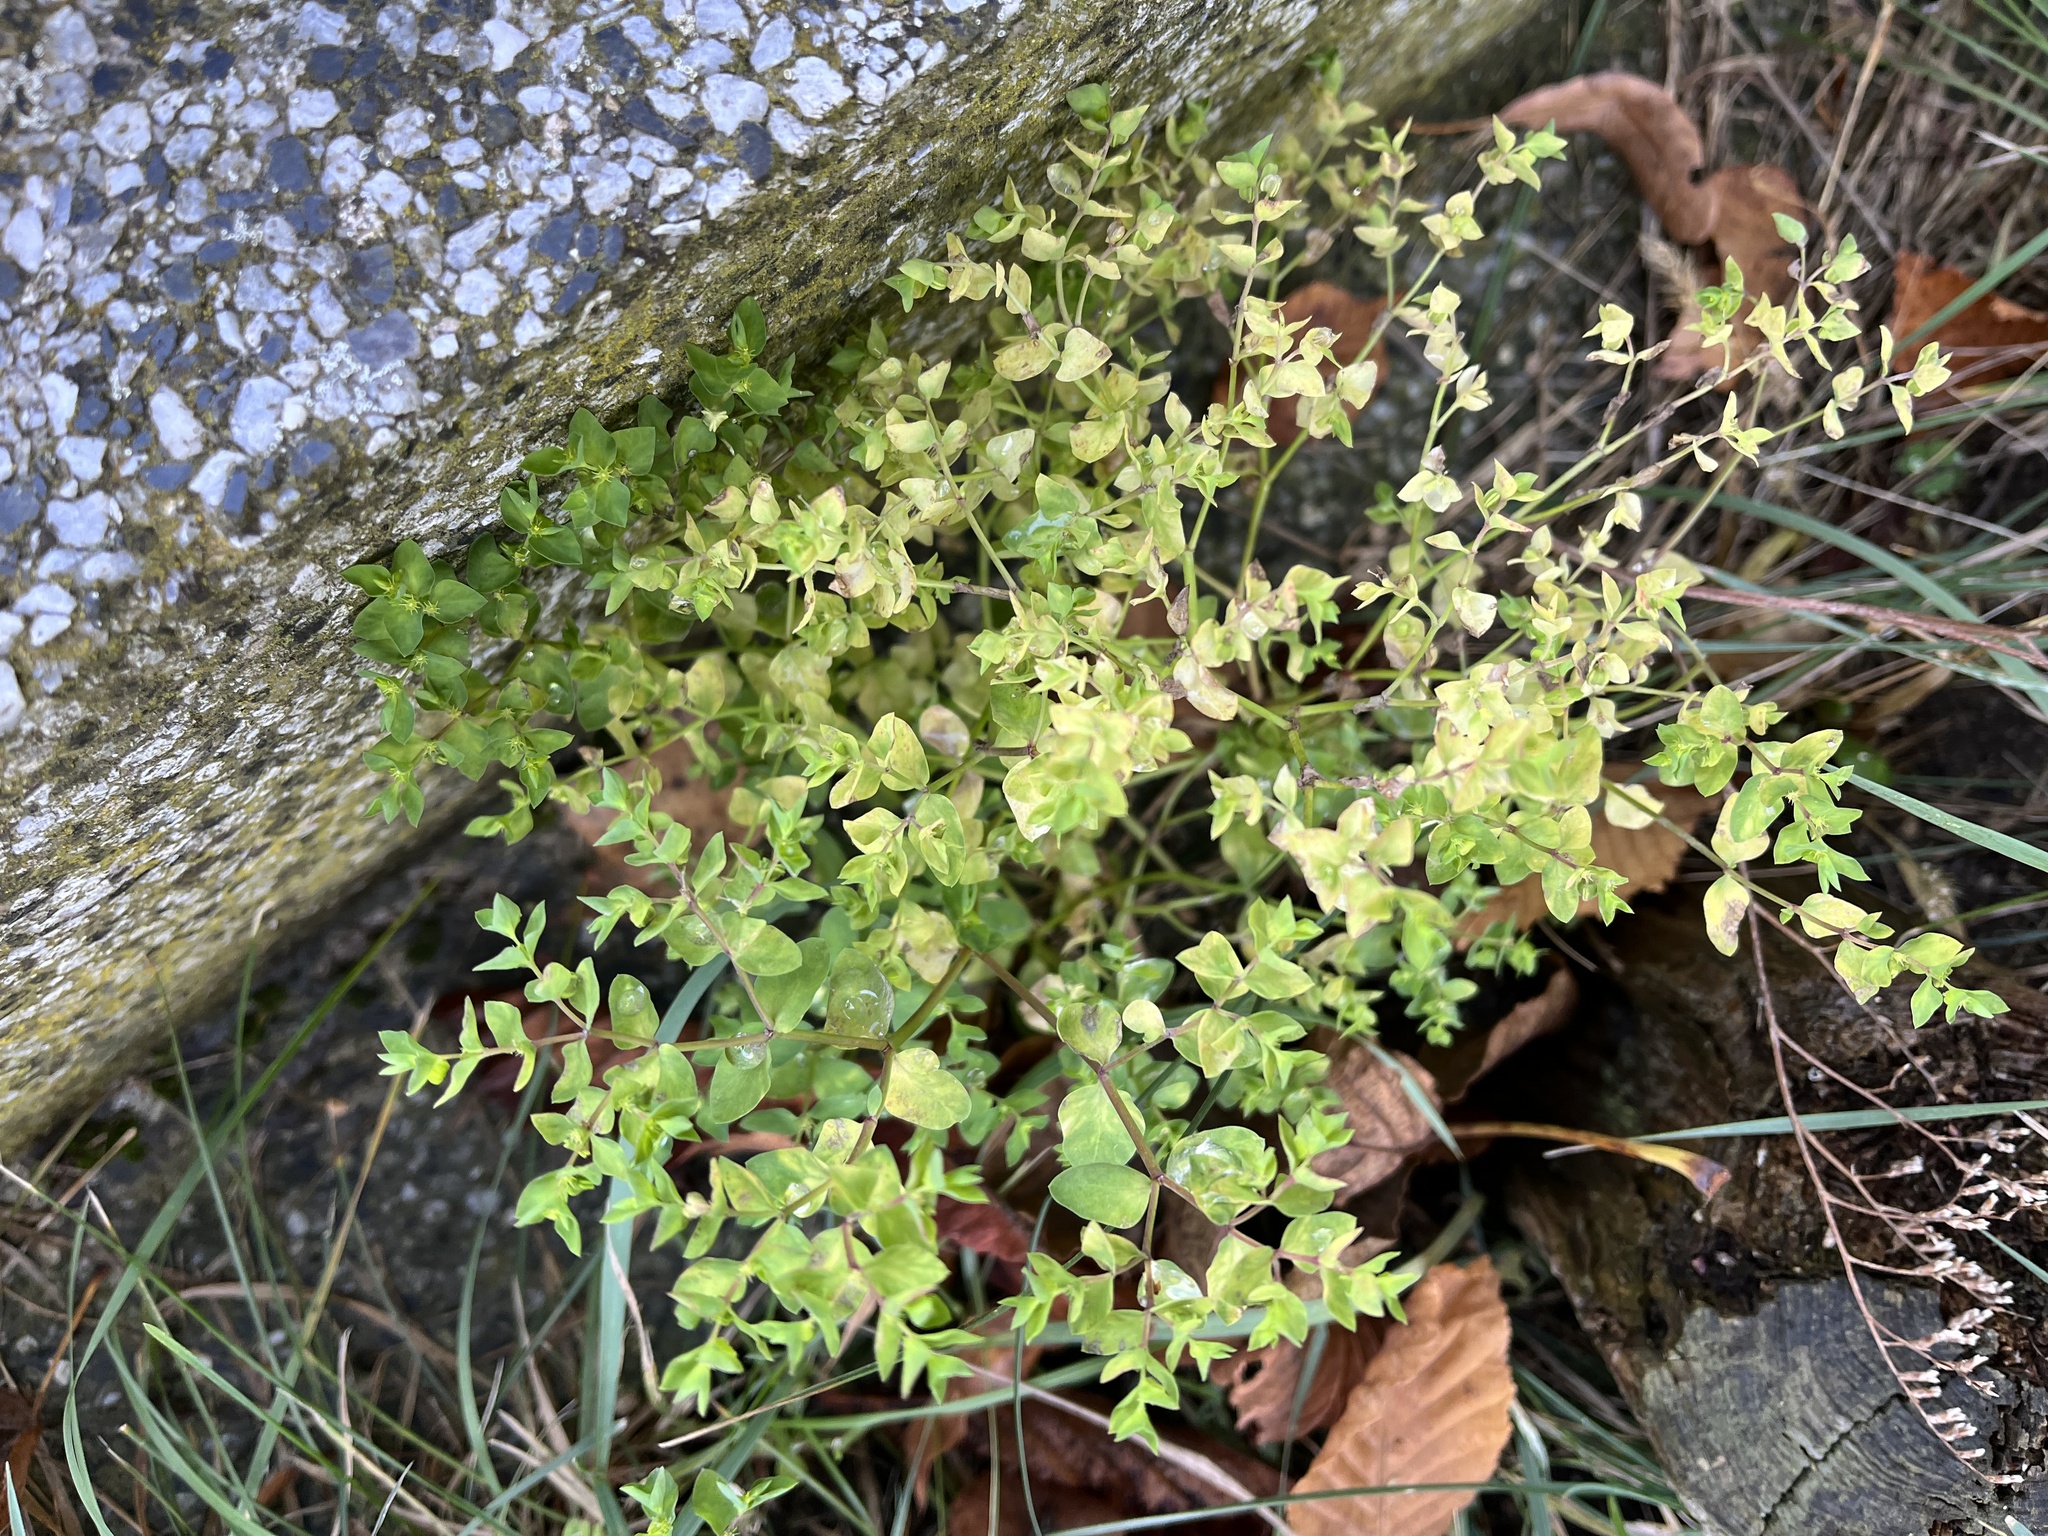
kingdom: Plantae
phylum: Tracheophyta
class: Magnoliopsida
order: Malpighiales
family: Euphorbiaceae
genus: Euphorbia
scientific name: Euphorbia peplus
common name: Petty spurge
